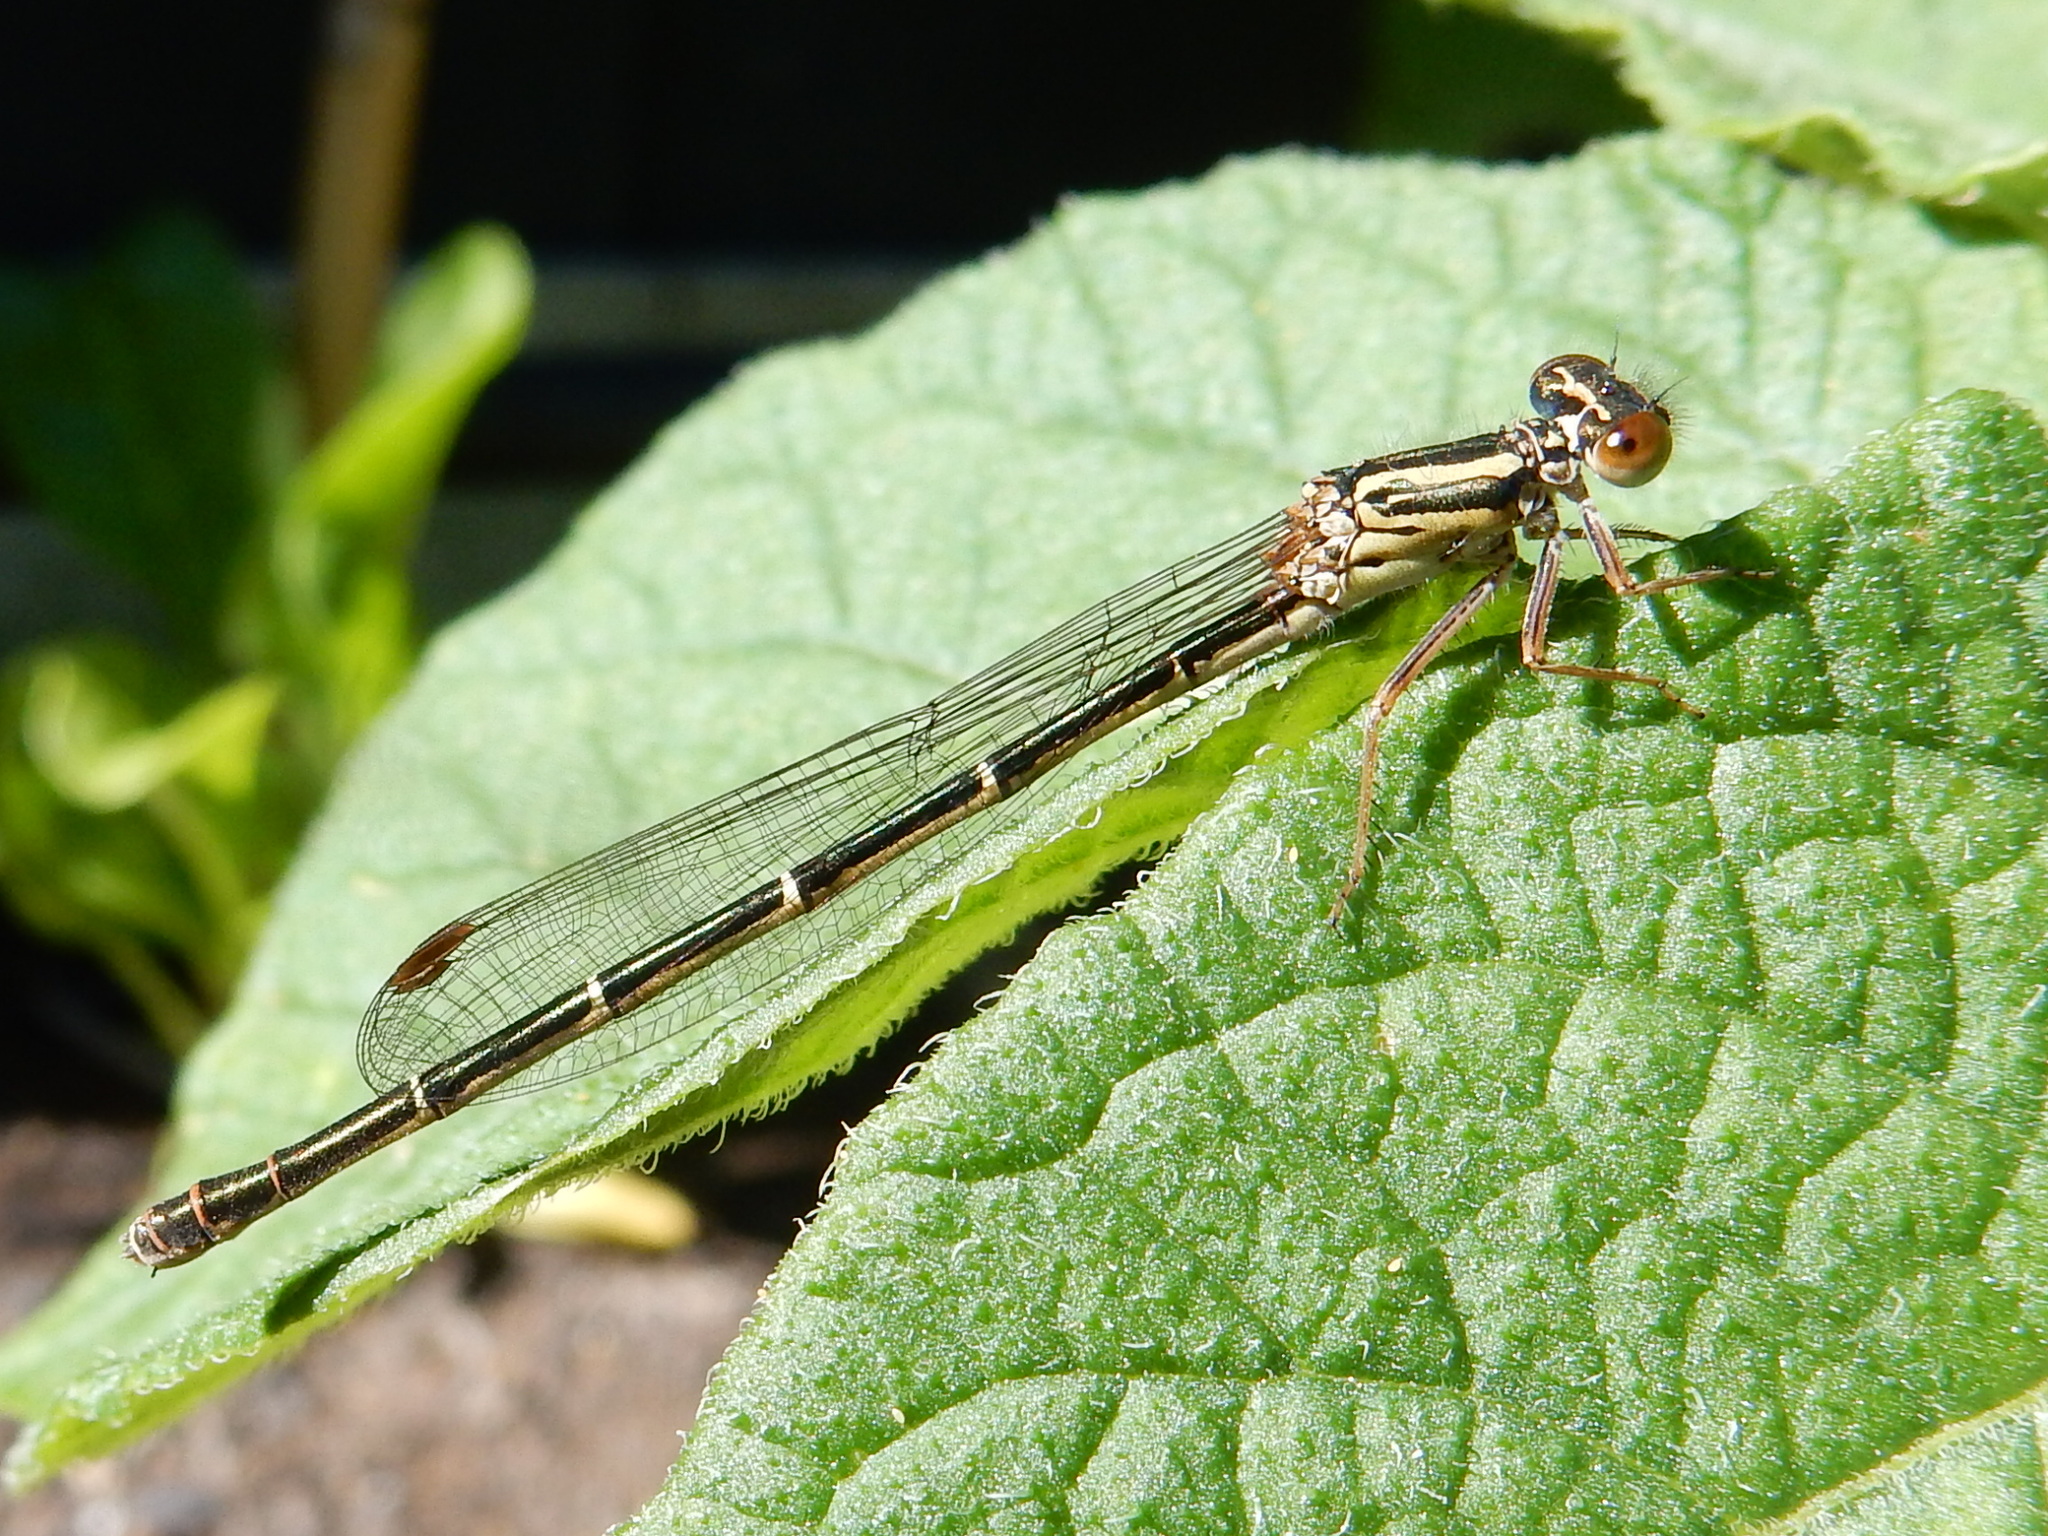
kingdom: Animalia
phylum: Arthropoda
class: Insecta
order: Odonata
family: Coenagrionidae
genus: Xanthocnemis
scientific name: Xanthocnemis zealandica
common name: Common redcoat damselfly
